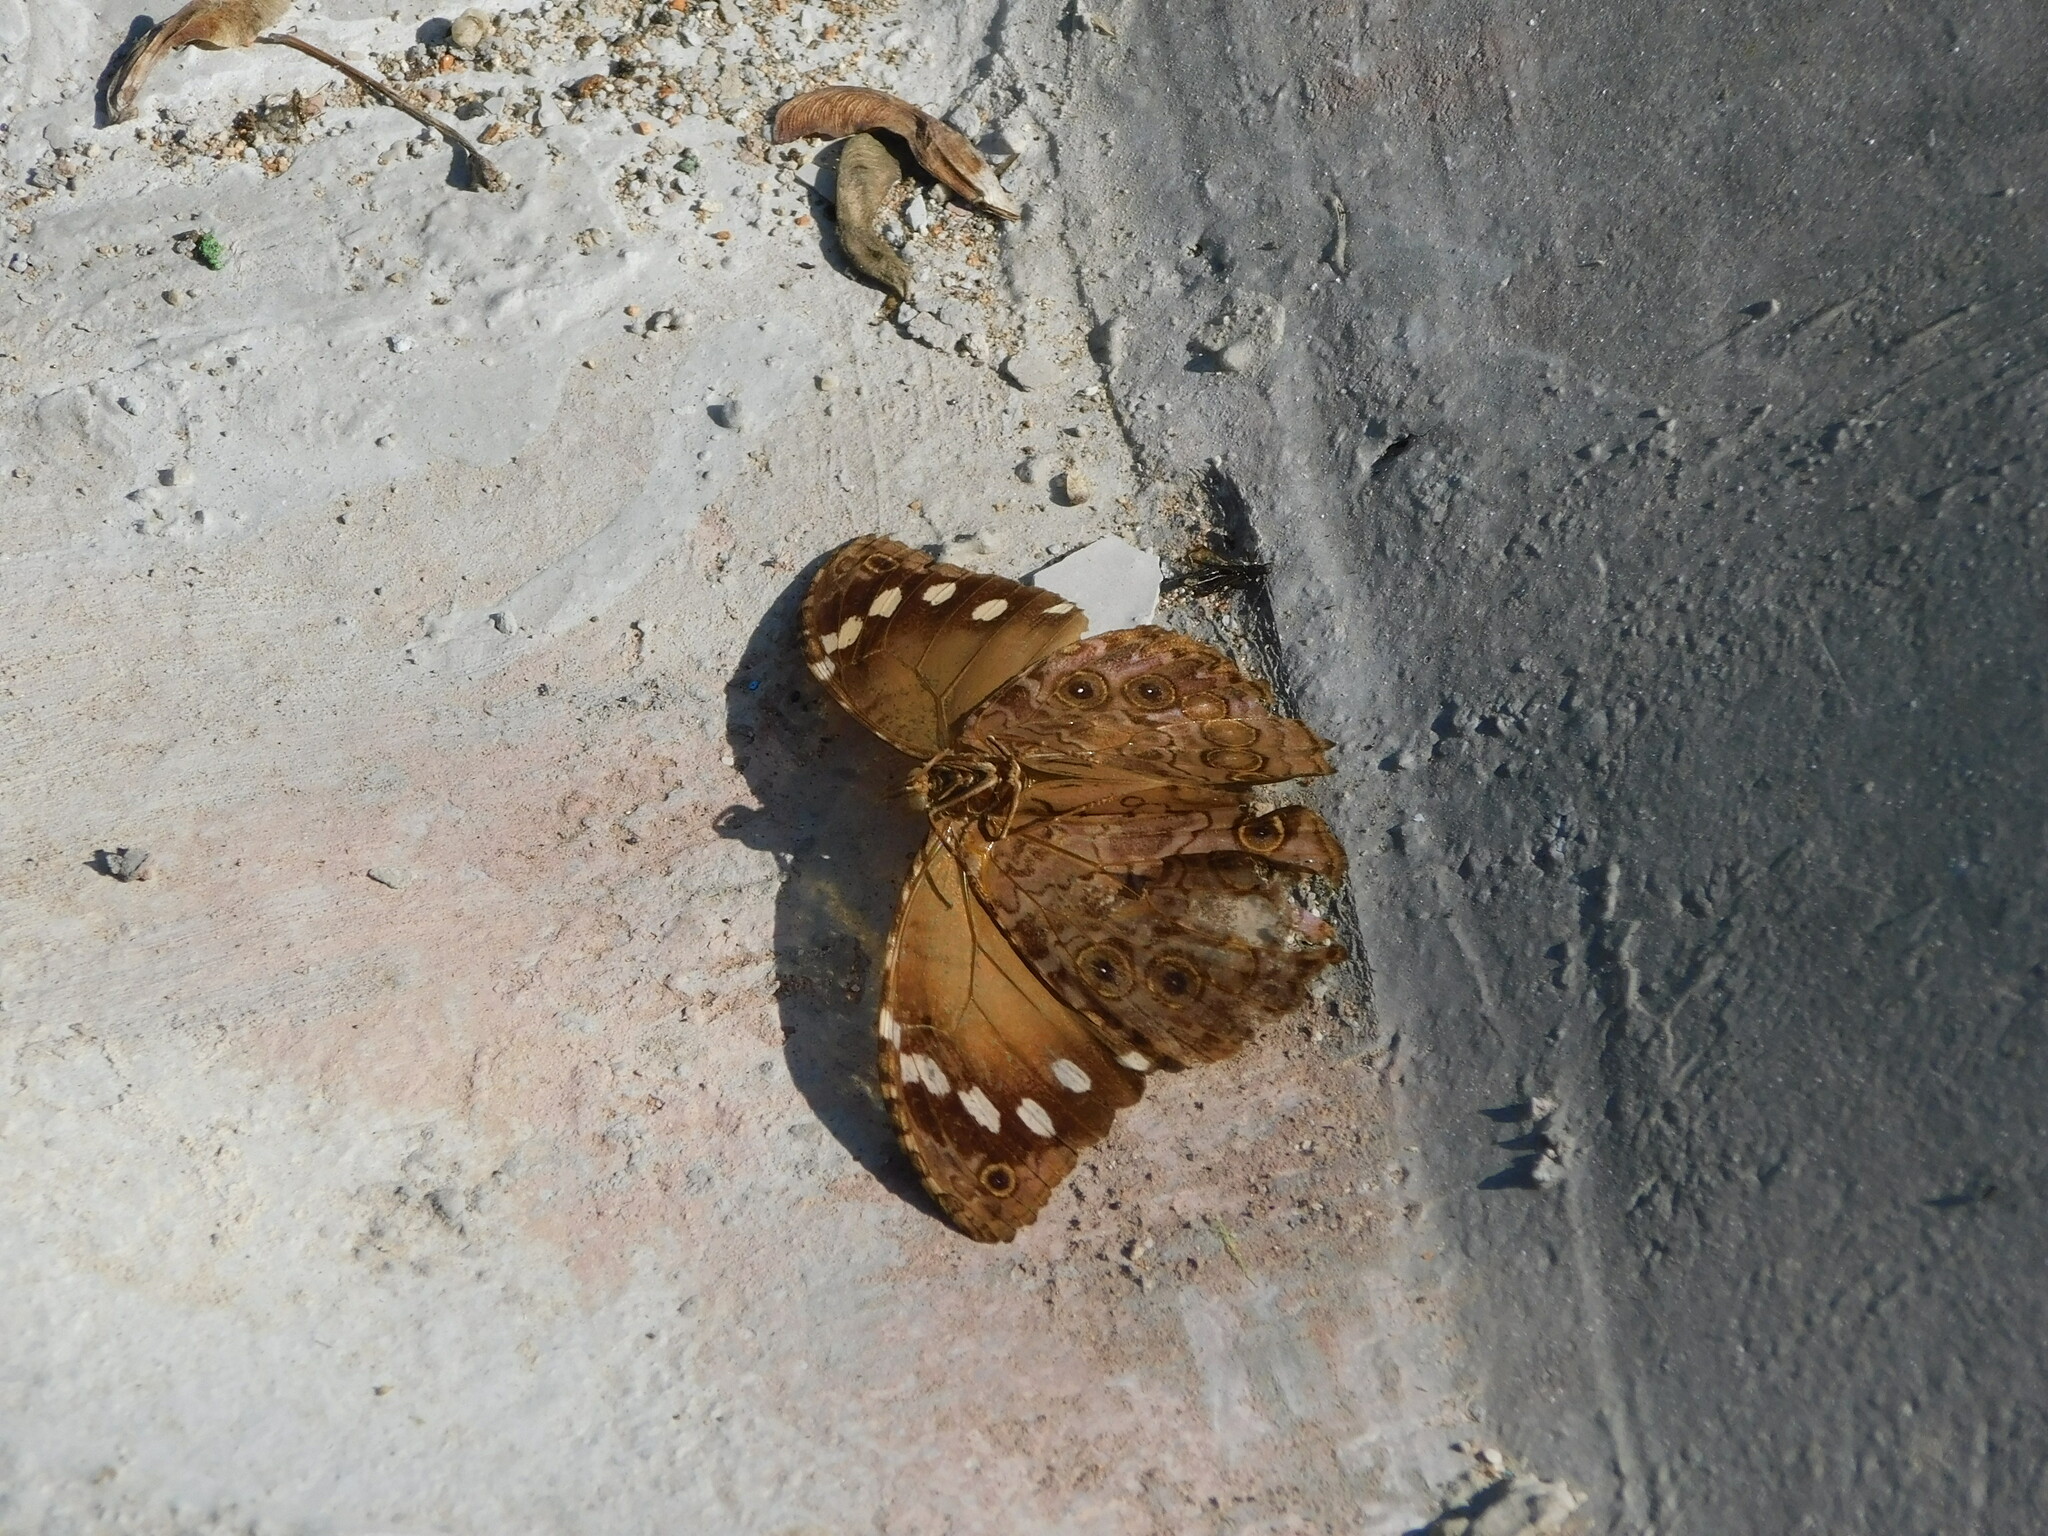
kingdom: Animalia
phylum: Arthropoda
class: Insecta
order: Lepidoptera
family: Nymphalidae
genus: Manataria
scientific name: Manataria maculata
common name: White-spotted satyr
